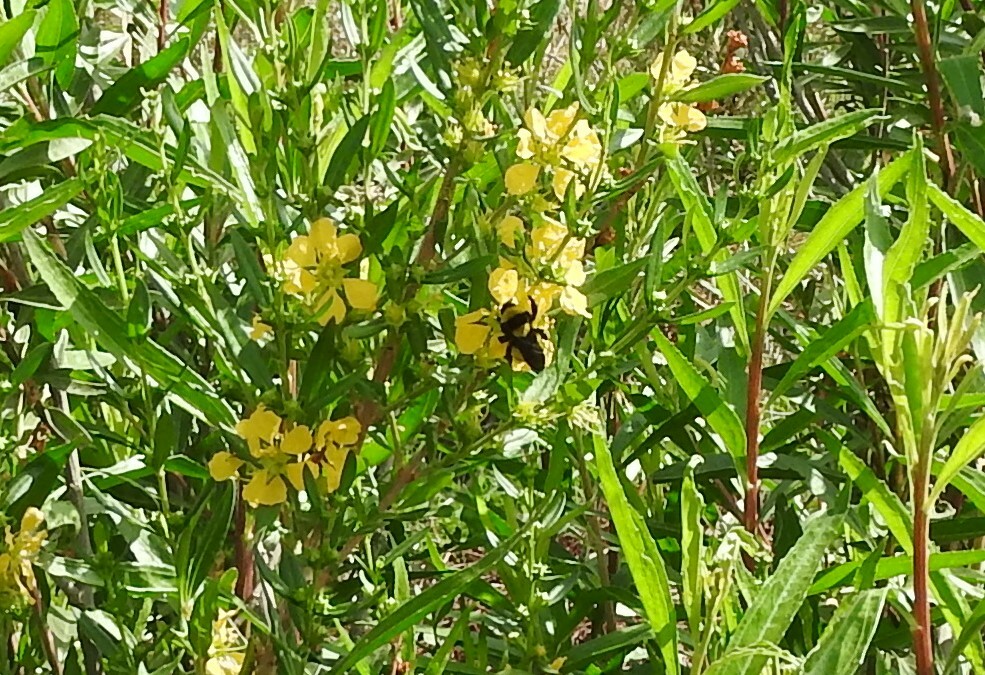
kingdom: Animalia
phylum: Arthropoda
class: Insecta
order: Hymenoptera
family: Apidae
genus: Bombus
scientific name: Bombus sonorus
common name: Sonoran bumble bee
